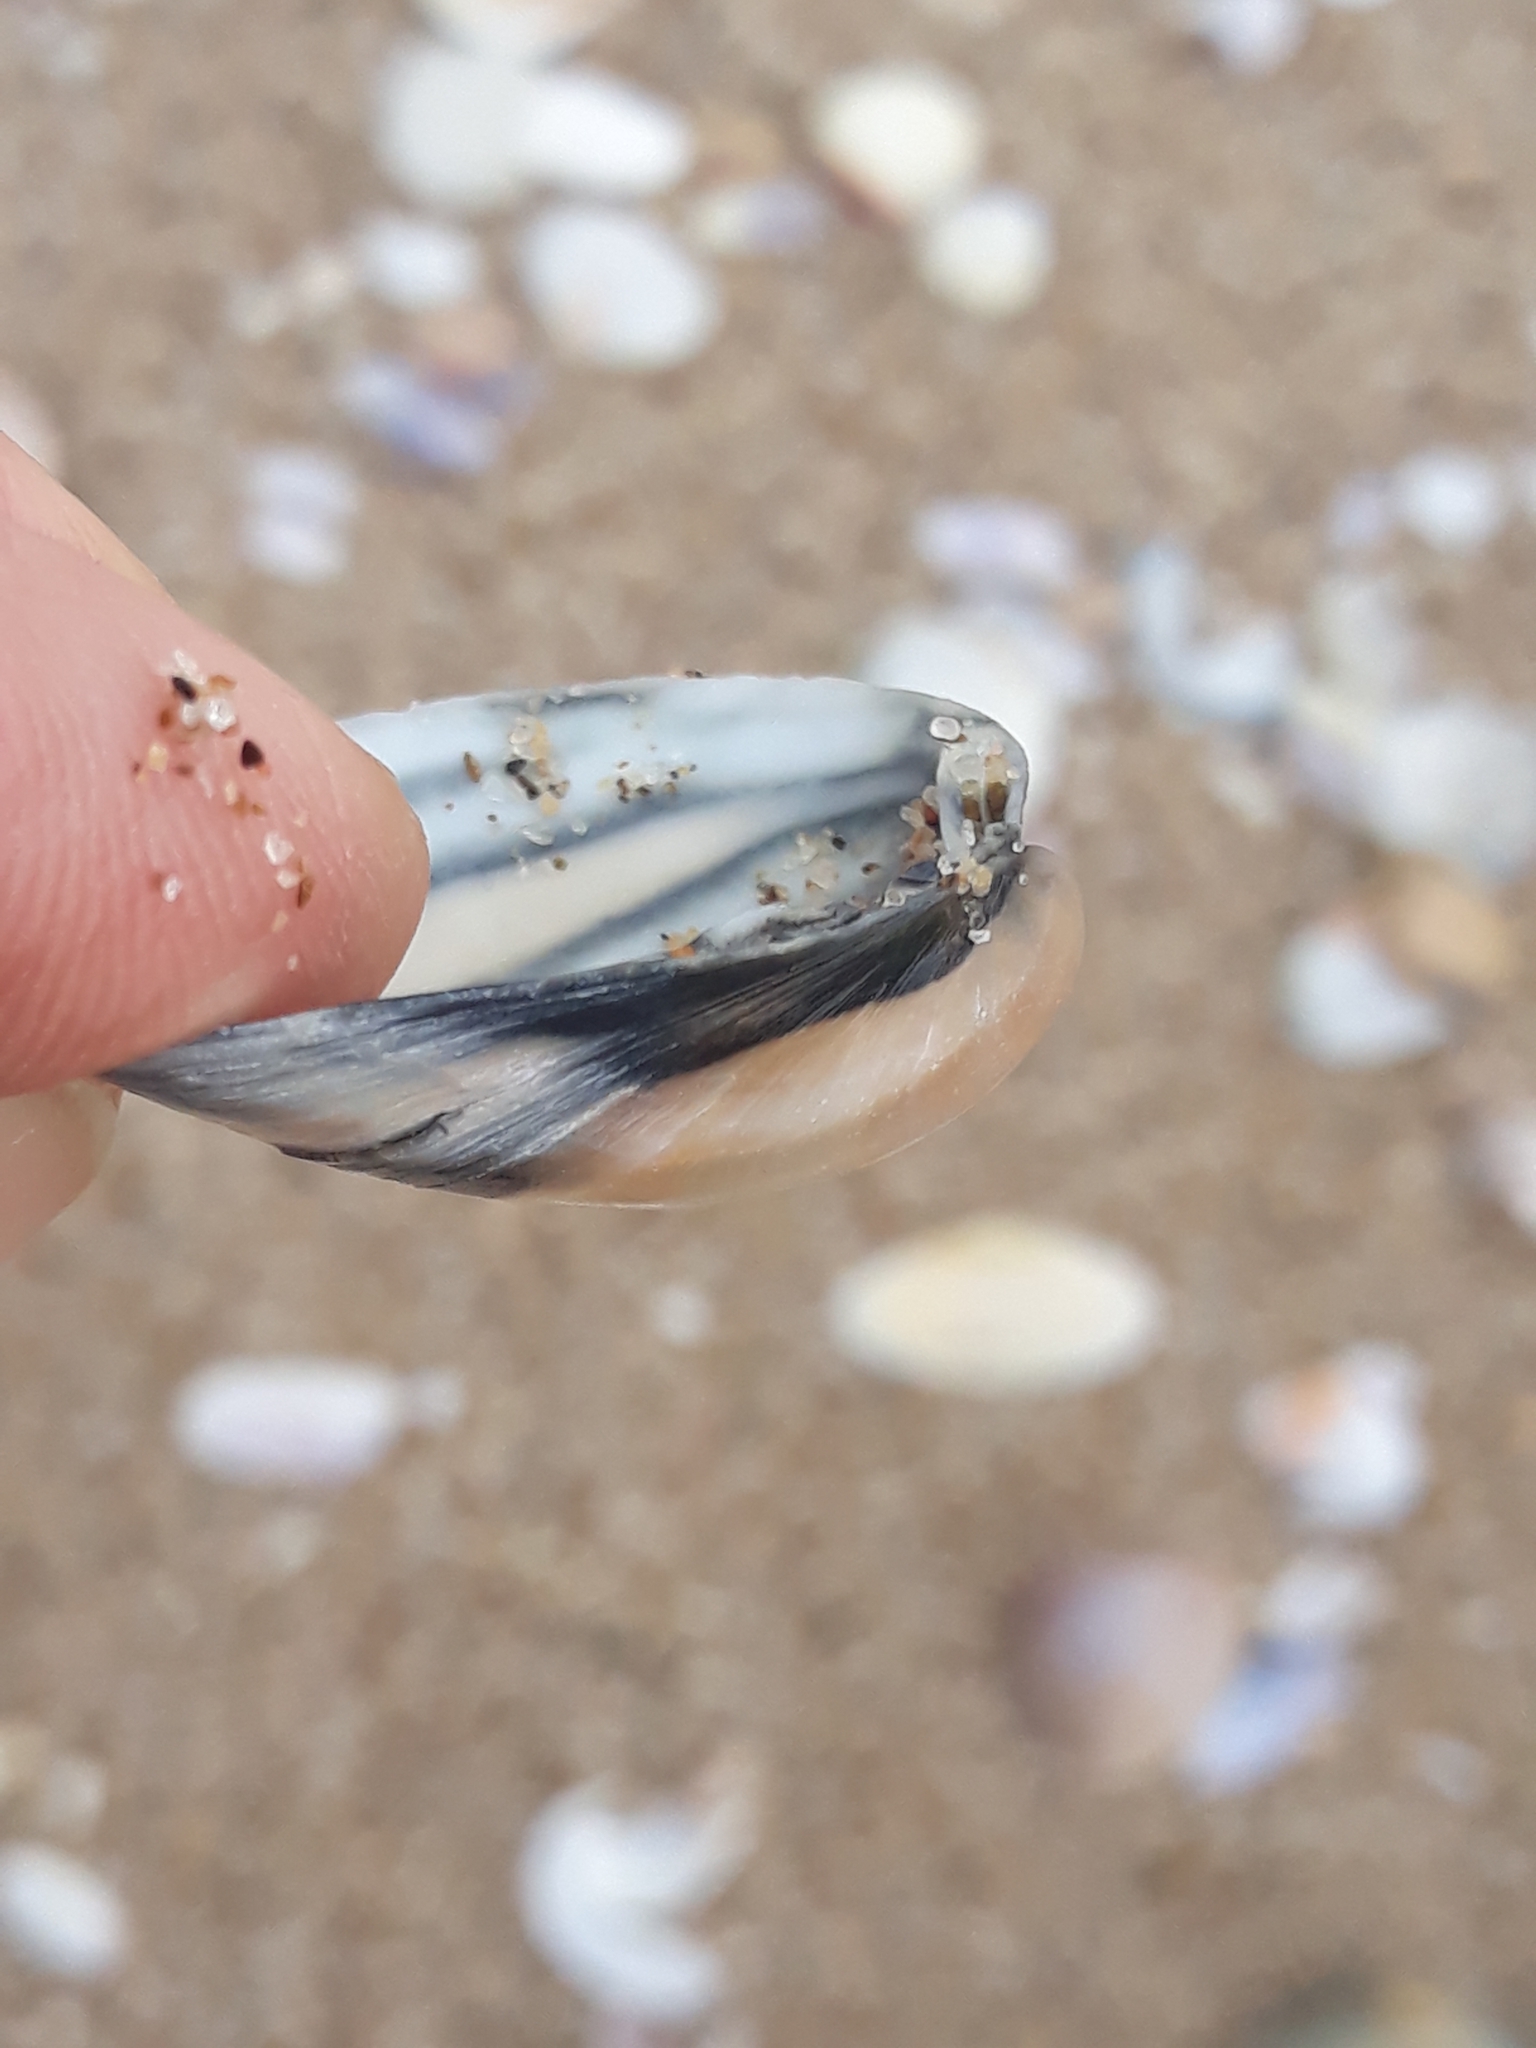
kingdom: Animalia
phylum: Mollusca
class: Bivalvia
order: Venerida
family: Mactridae
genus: Mactra
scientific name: Mactra stultorum
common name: Rayed trough shell
